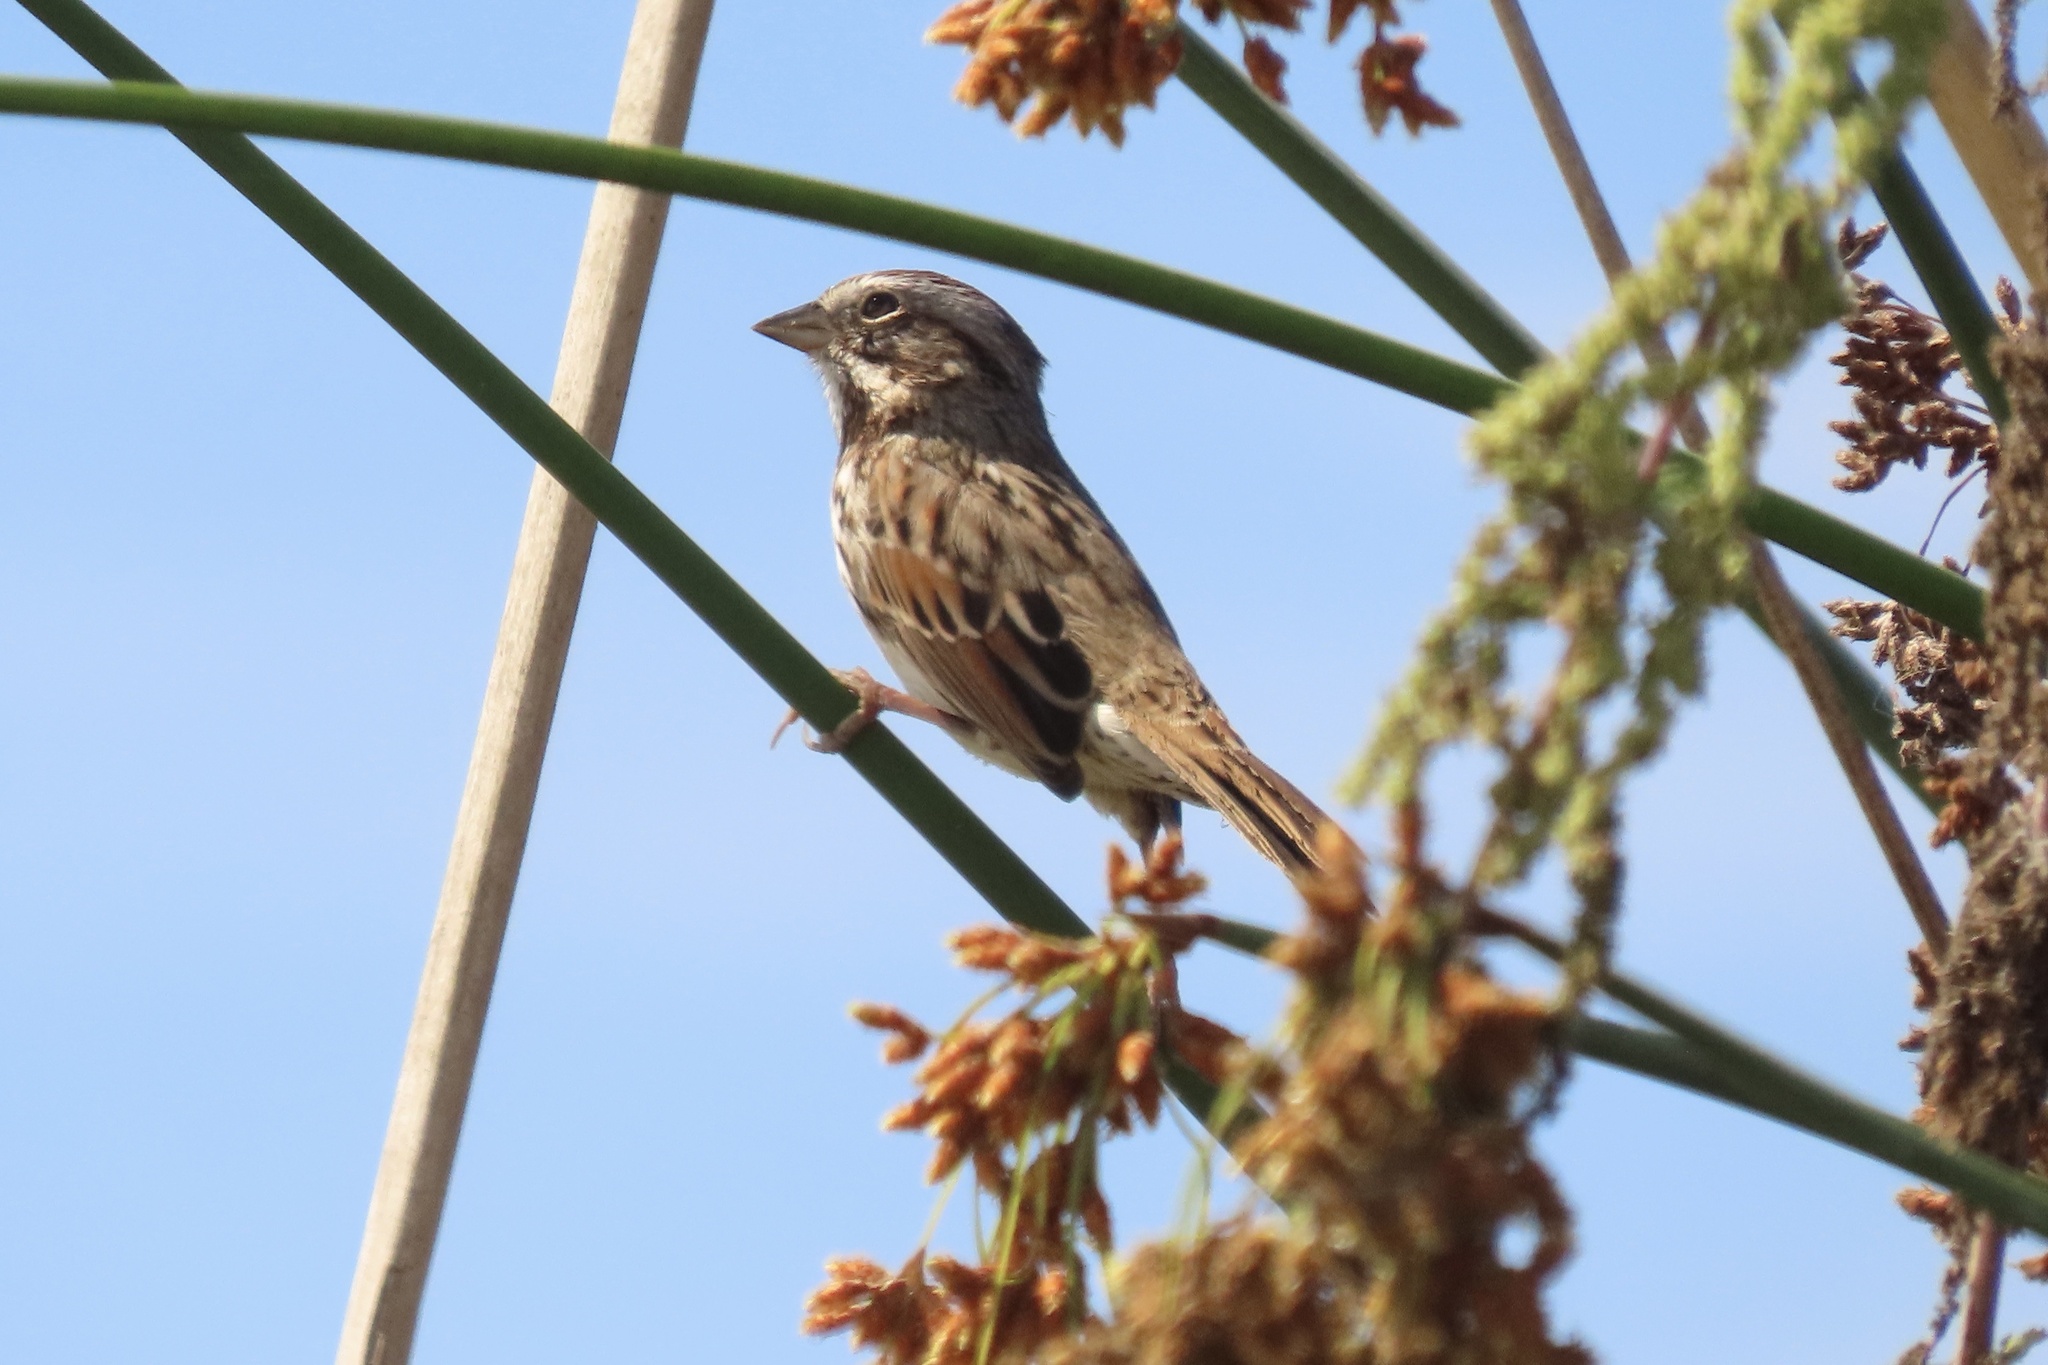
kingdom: Animalia
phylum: Chordata
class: Aves
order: Passeriformes
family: Passerellidae
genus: Melospiza
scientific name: Melospiza melodia
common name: Song sparrow
